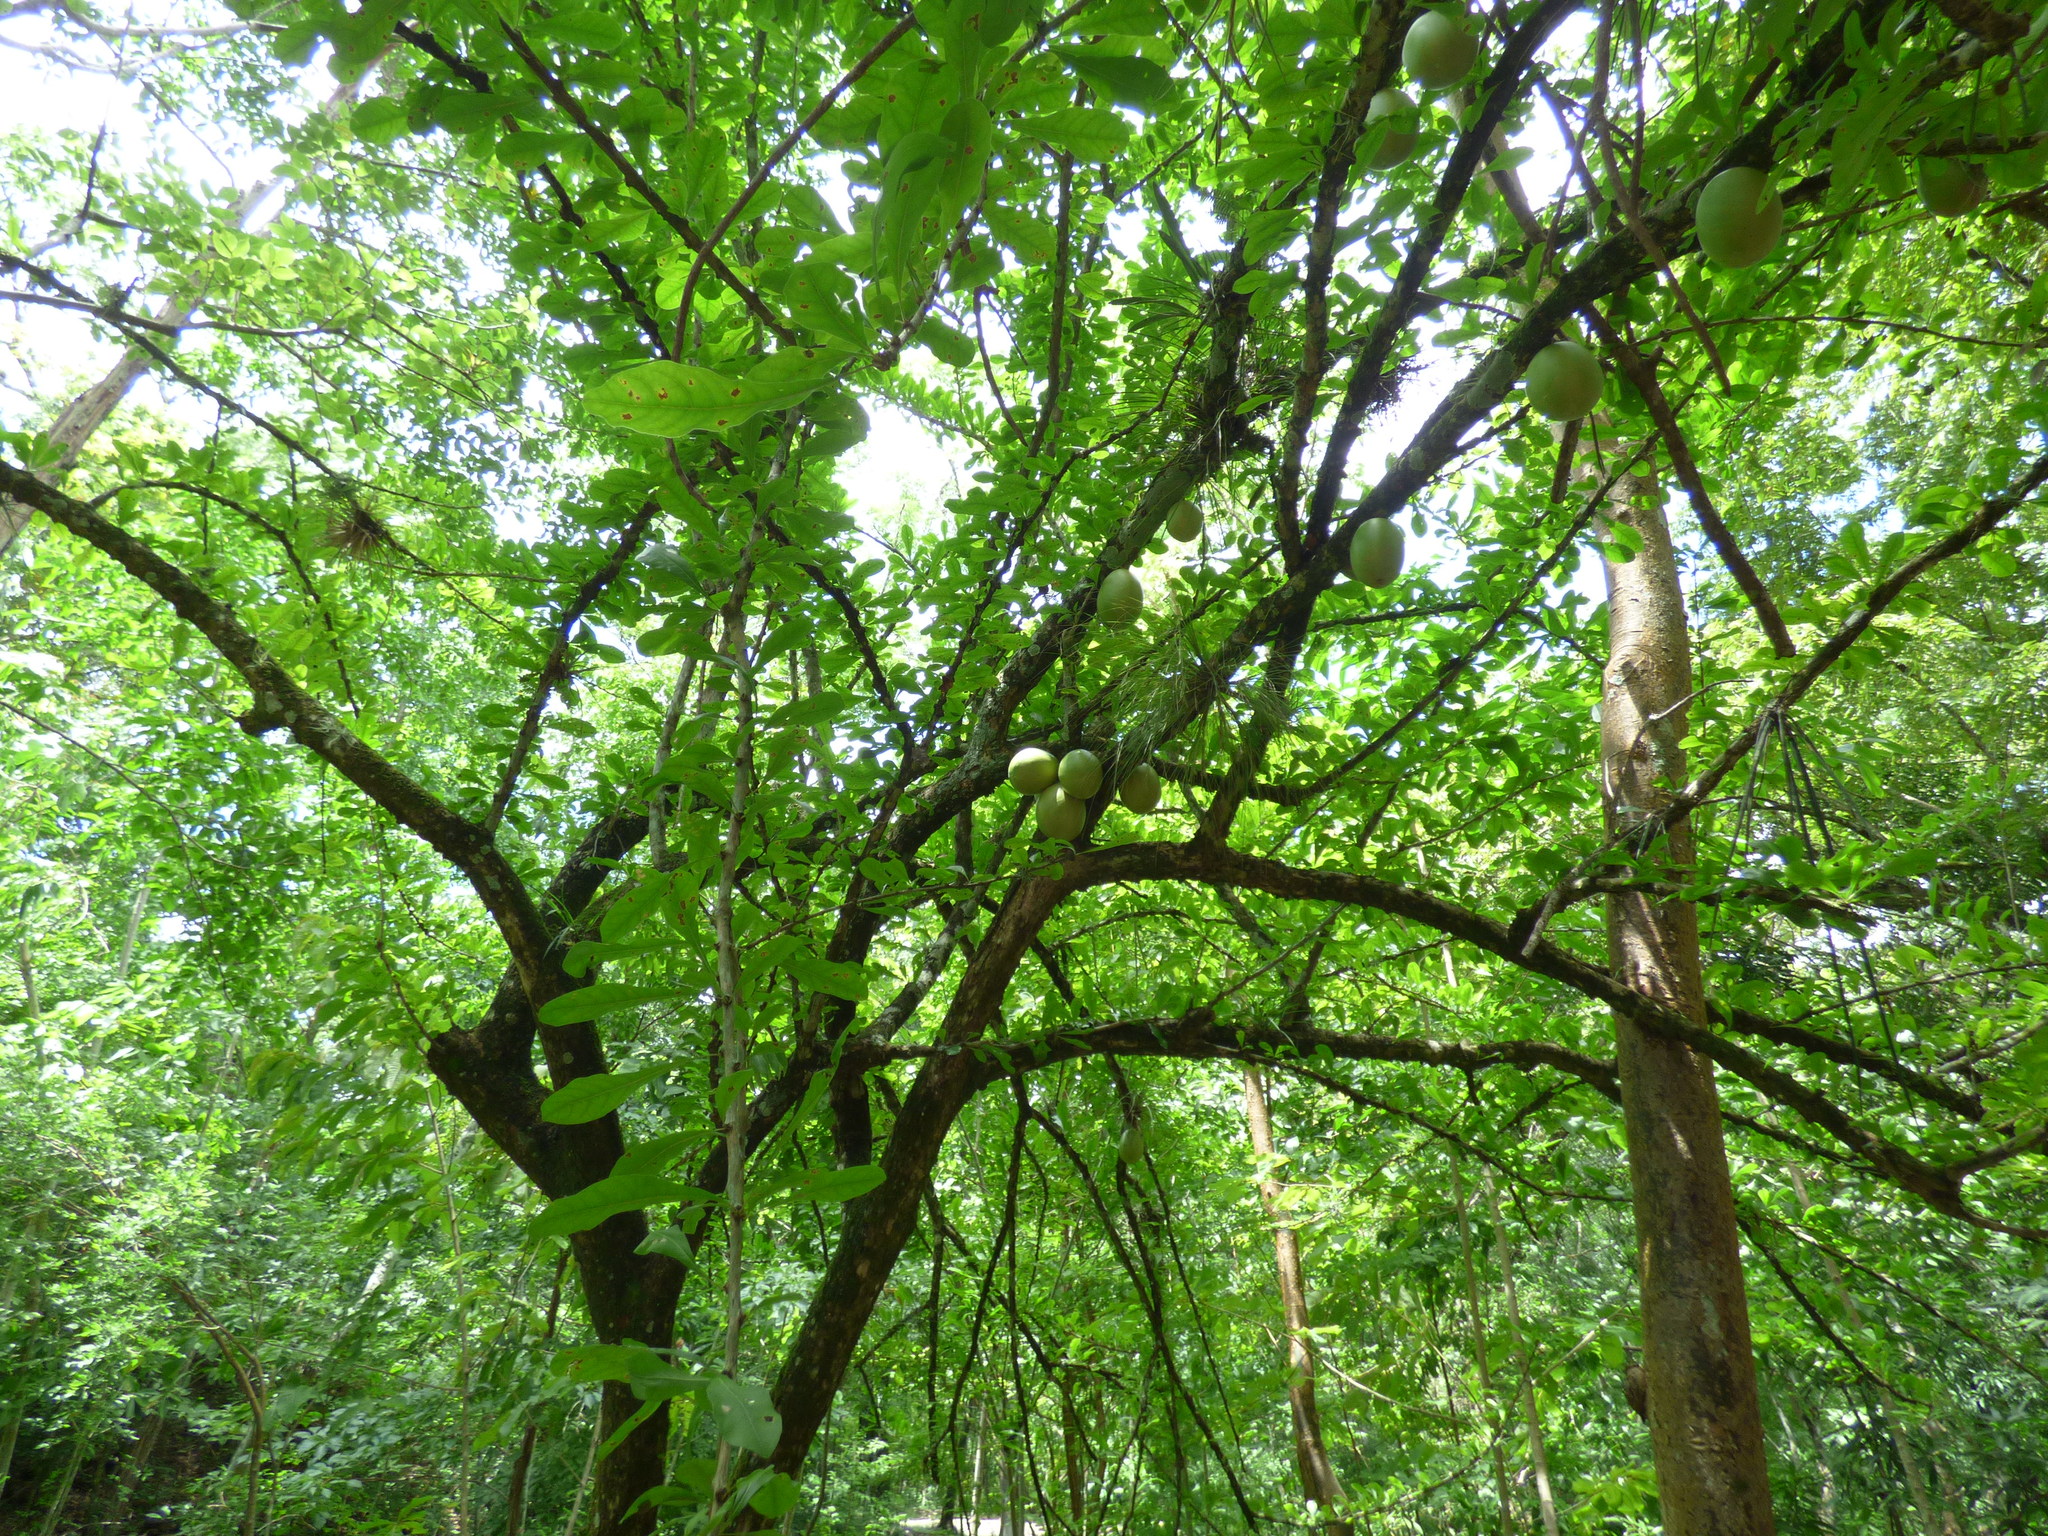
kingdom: Plantae
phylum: Tracheophyta
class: Magnoliopsida
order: Lamiales
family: Bignoniaceae
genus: Crescentia
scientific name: Crescentia alata
